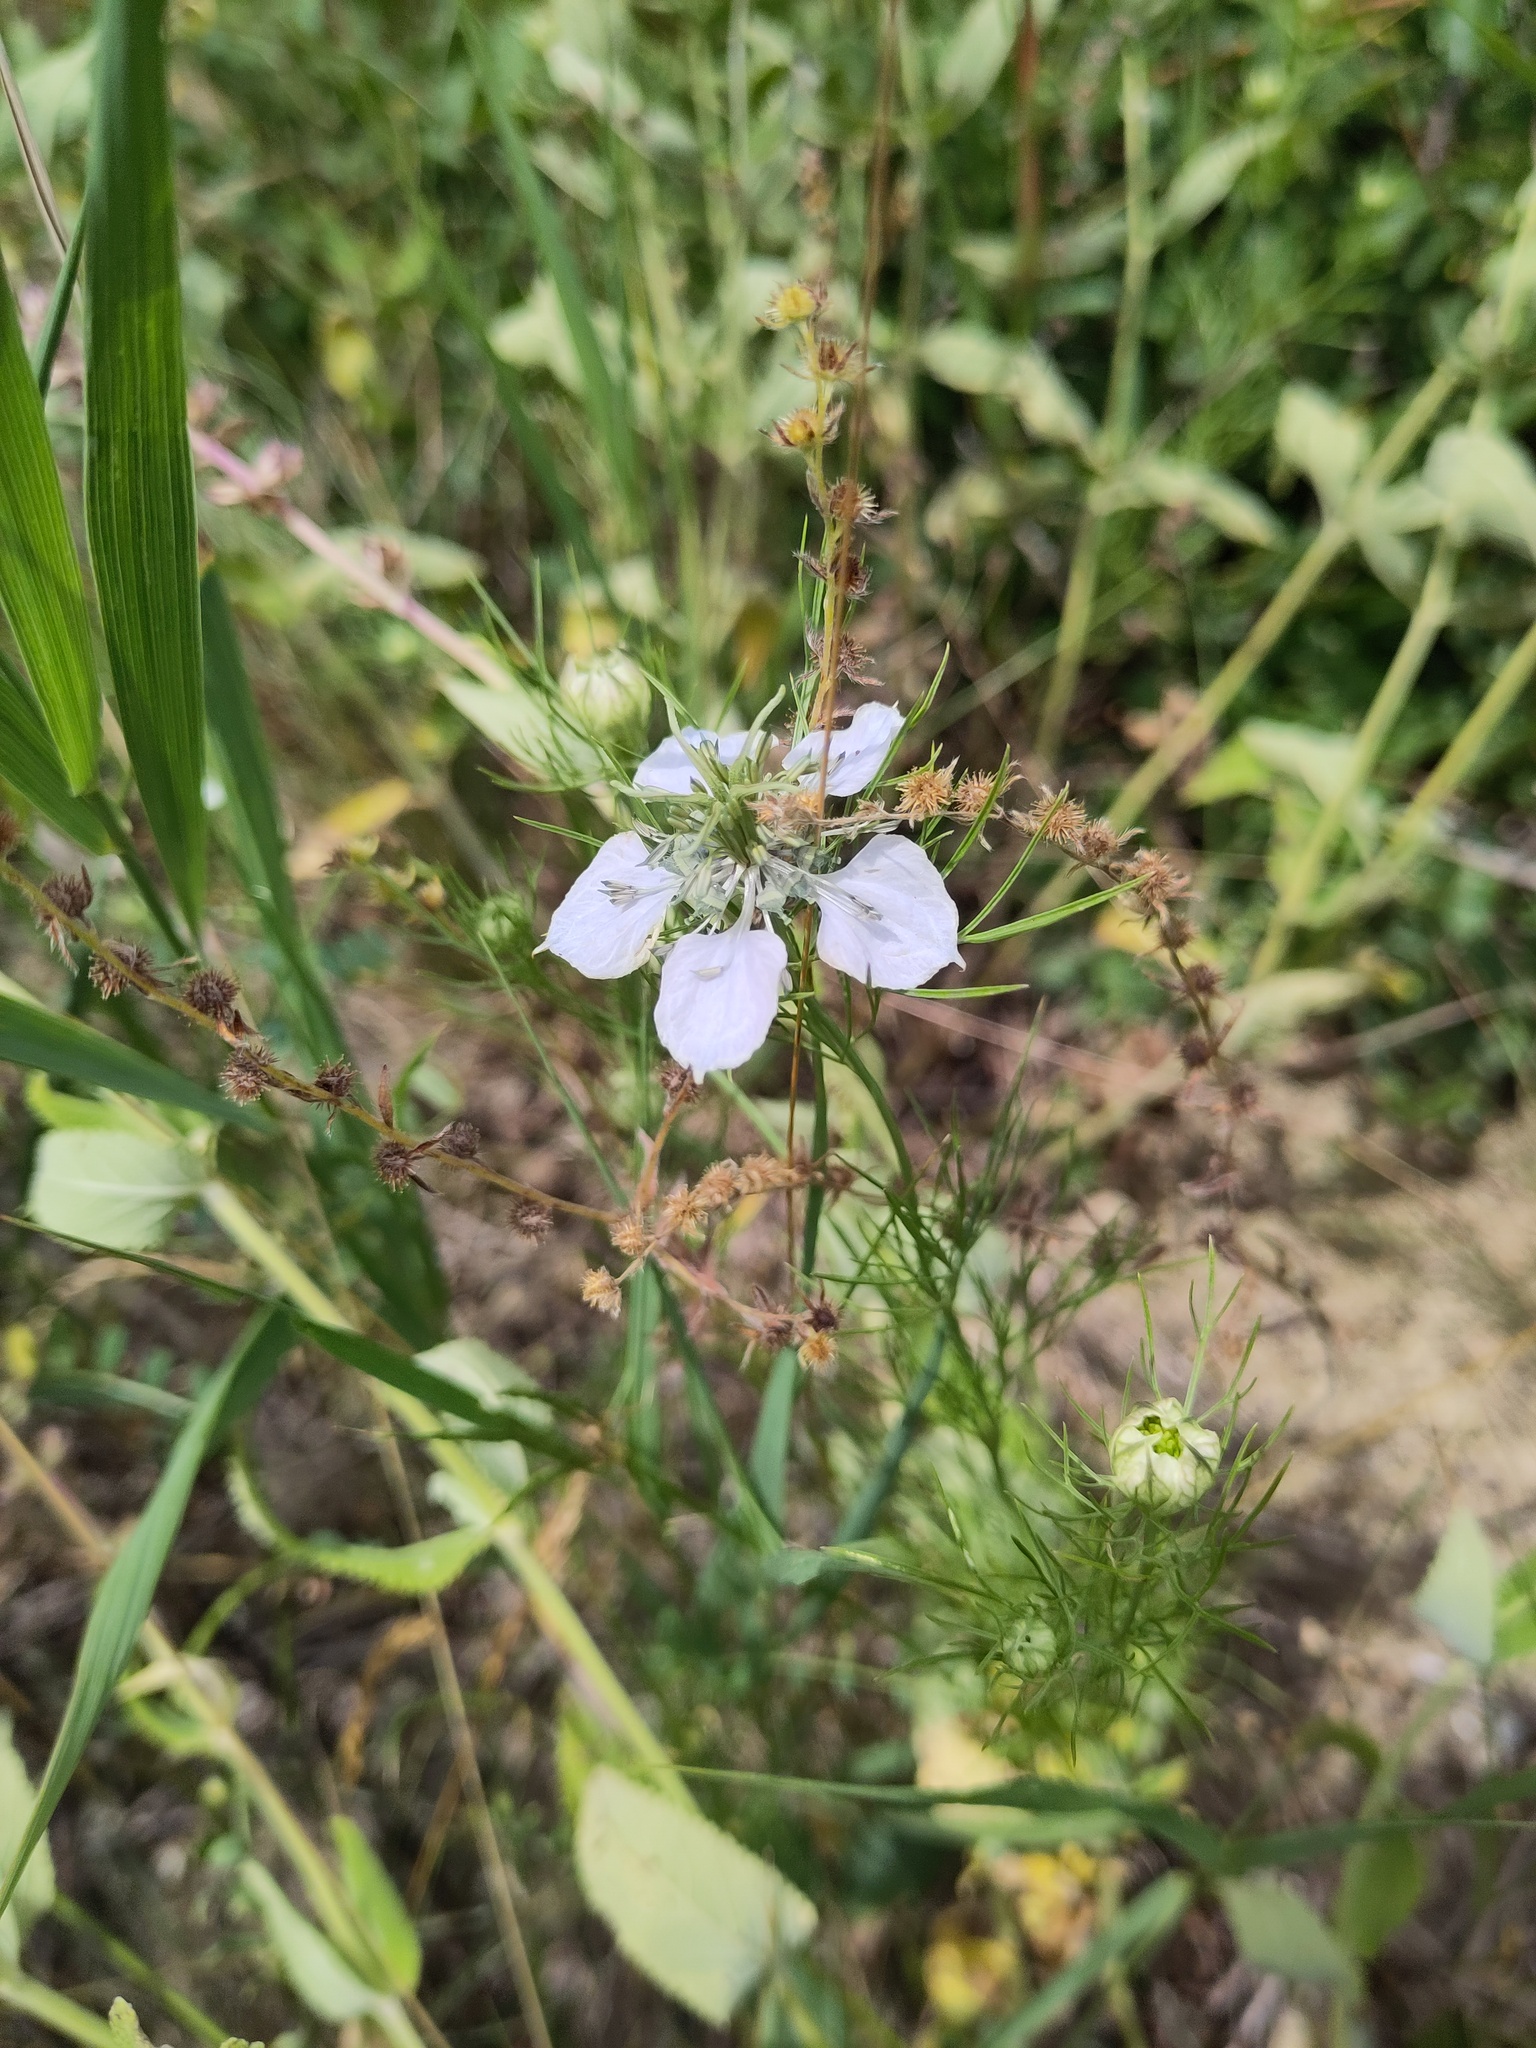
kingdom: Plantae
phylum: Tracheophyta
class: Magnoliopsida
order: Ranunculales
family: Ranunculaceae
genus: Nigella
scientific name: Nigella arvensis
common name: Wild fennel-flower
